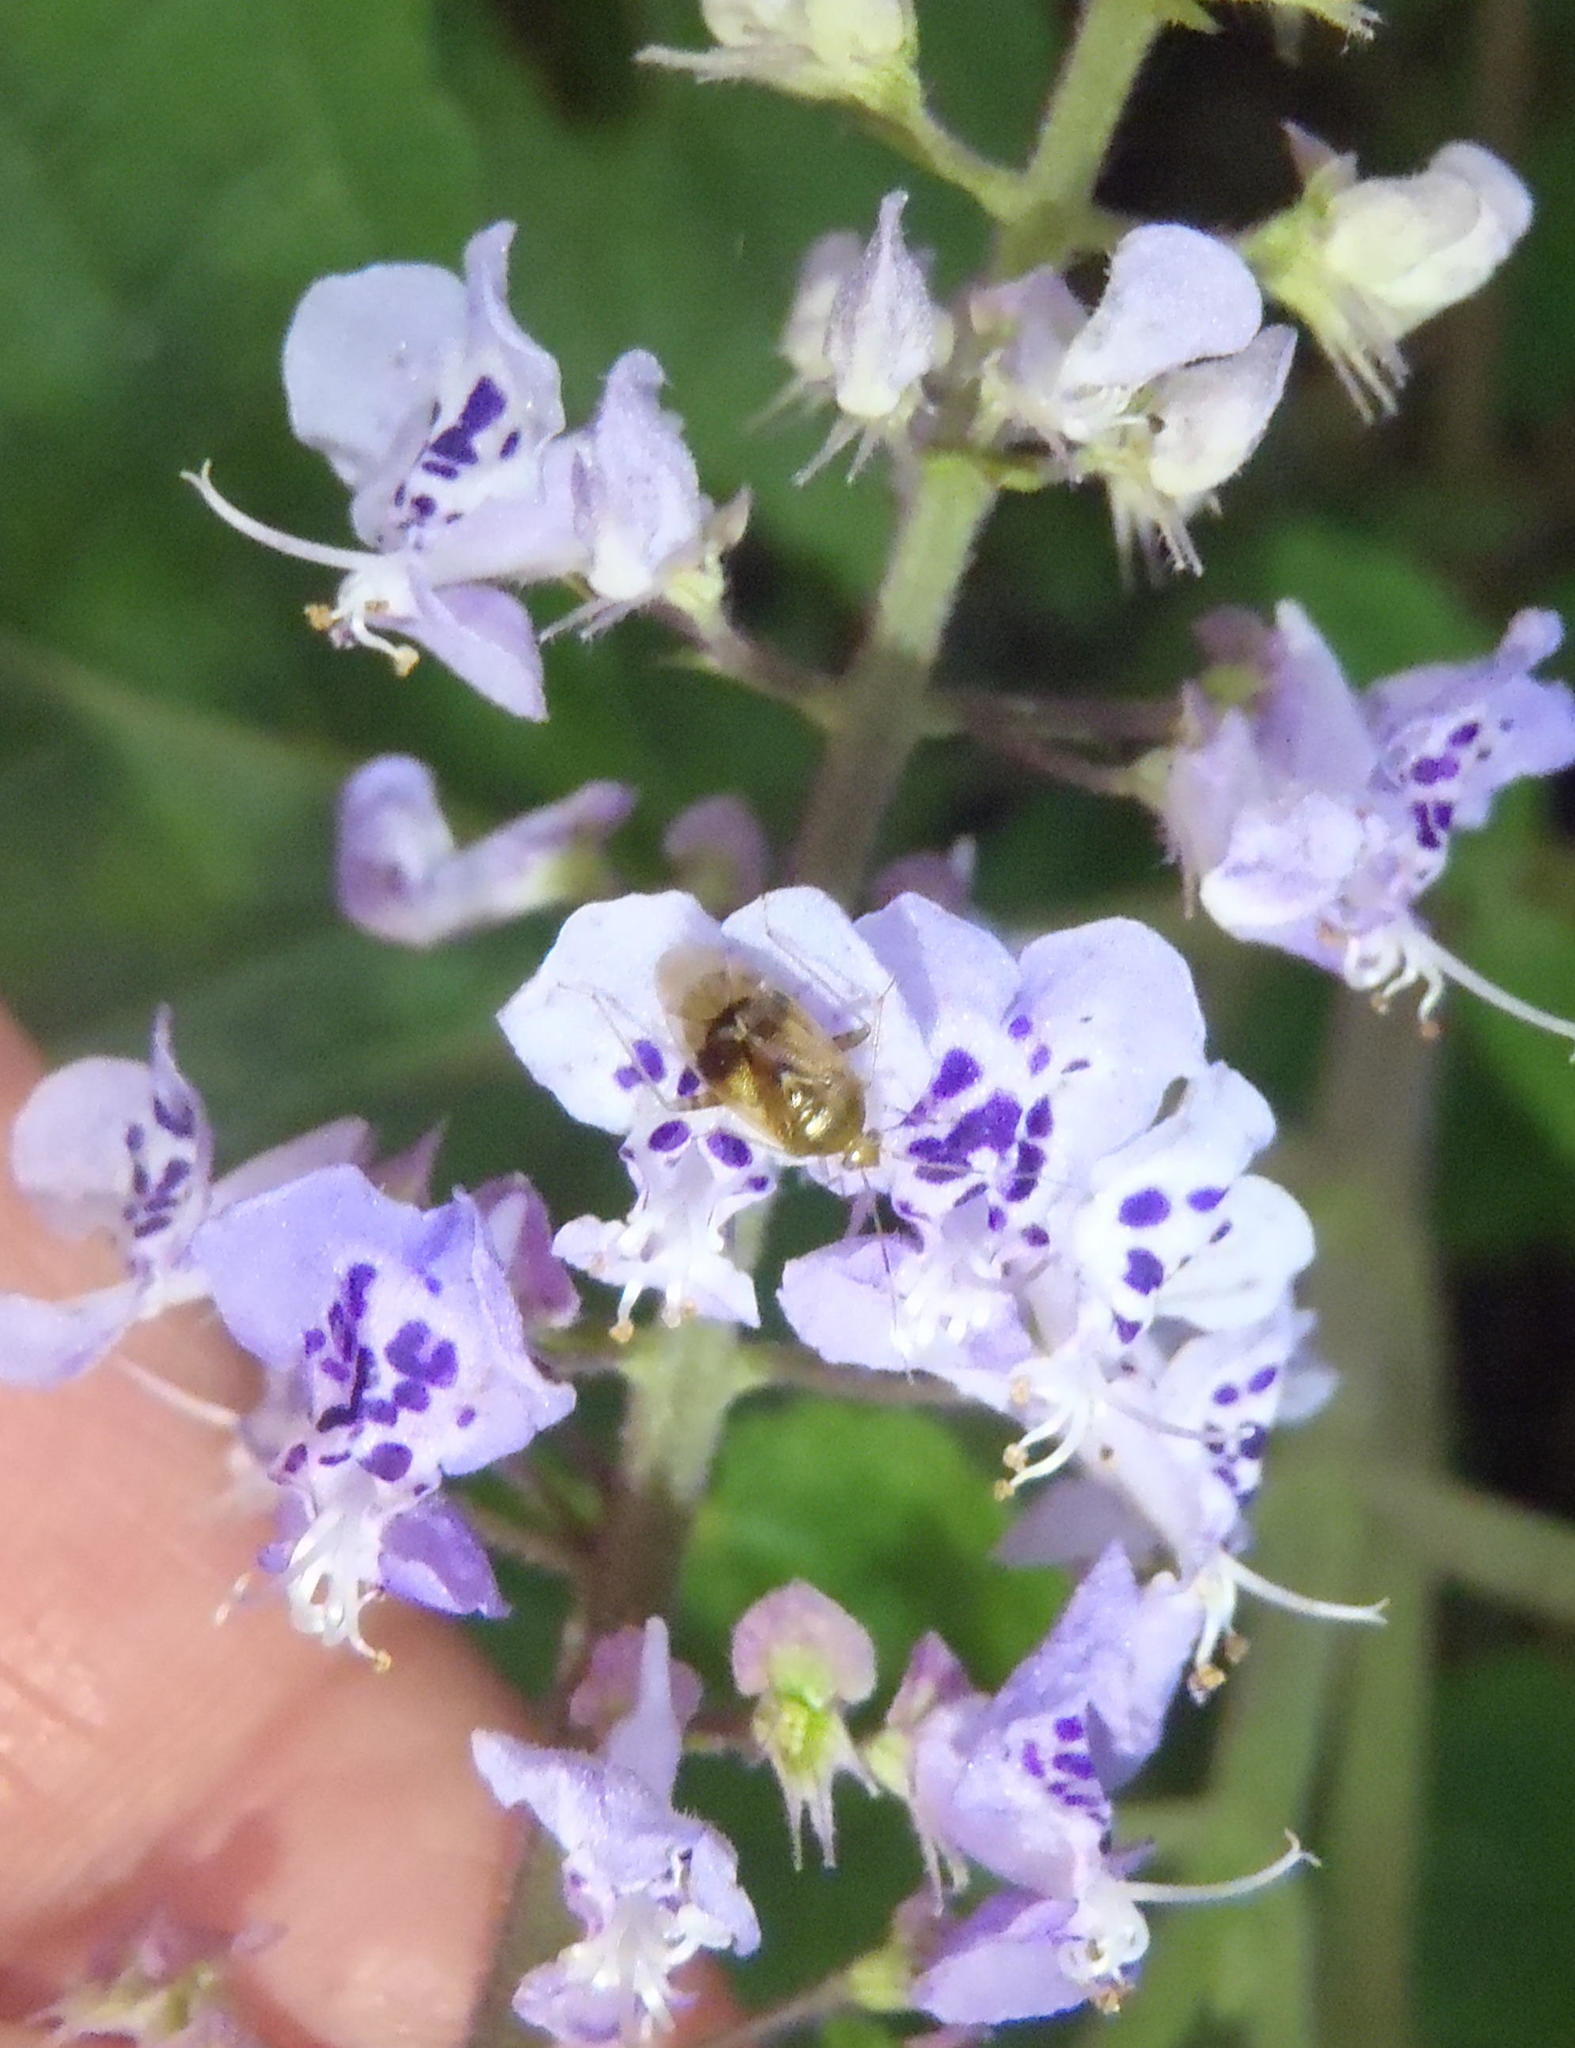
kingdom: Plantae
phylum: Tracheophyta
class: Magnoliopsida
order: Lamiales
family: Lamiaceae
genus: Plectranthus
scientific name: Plectranthus fruticosus
